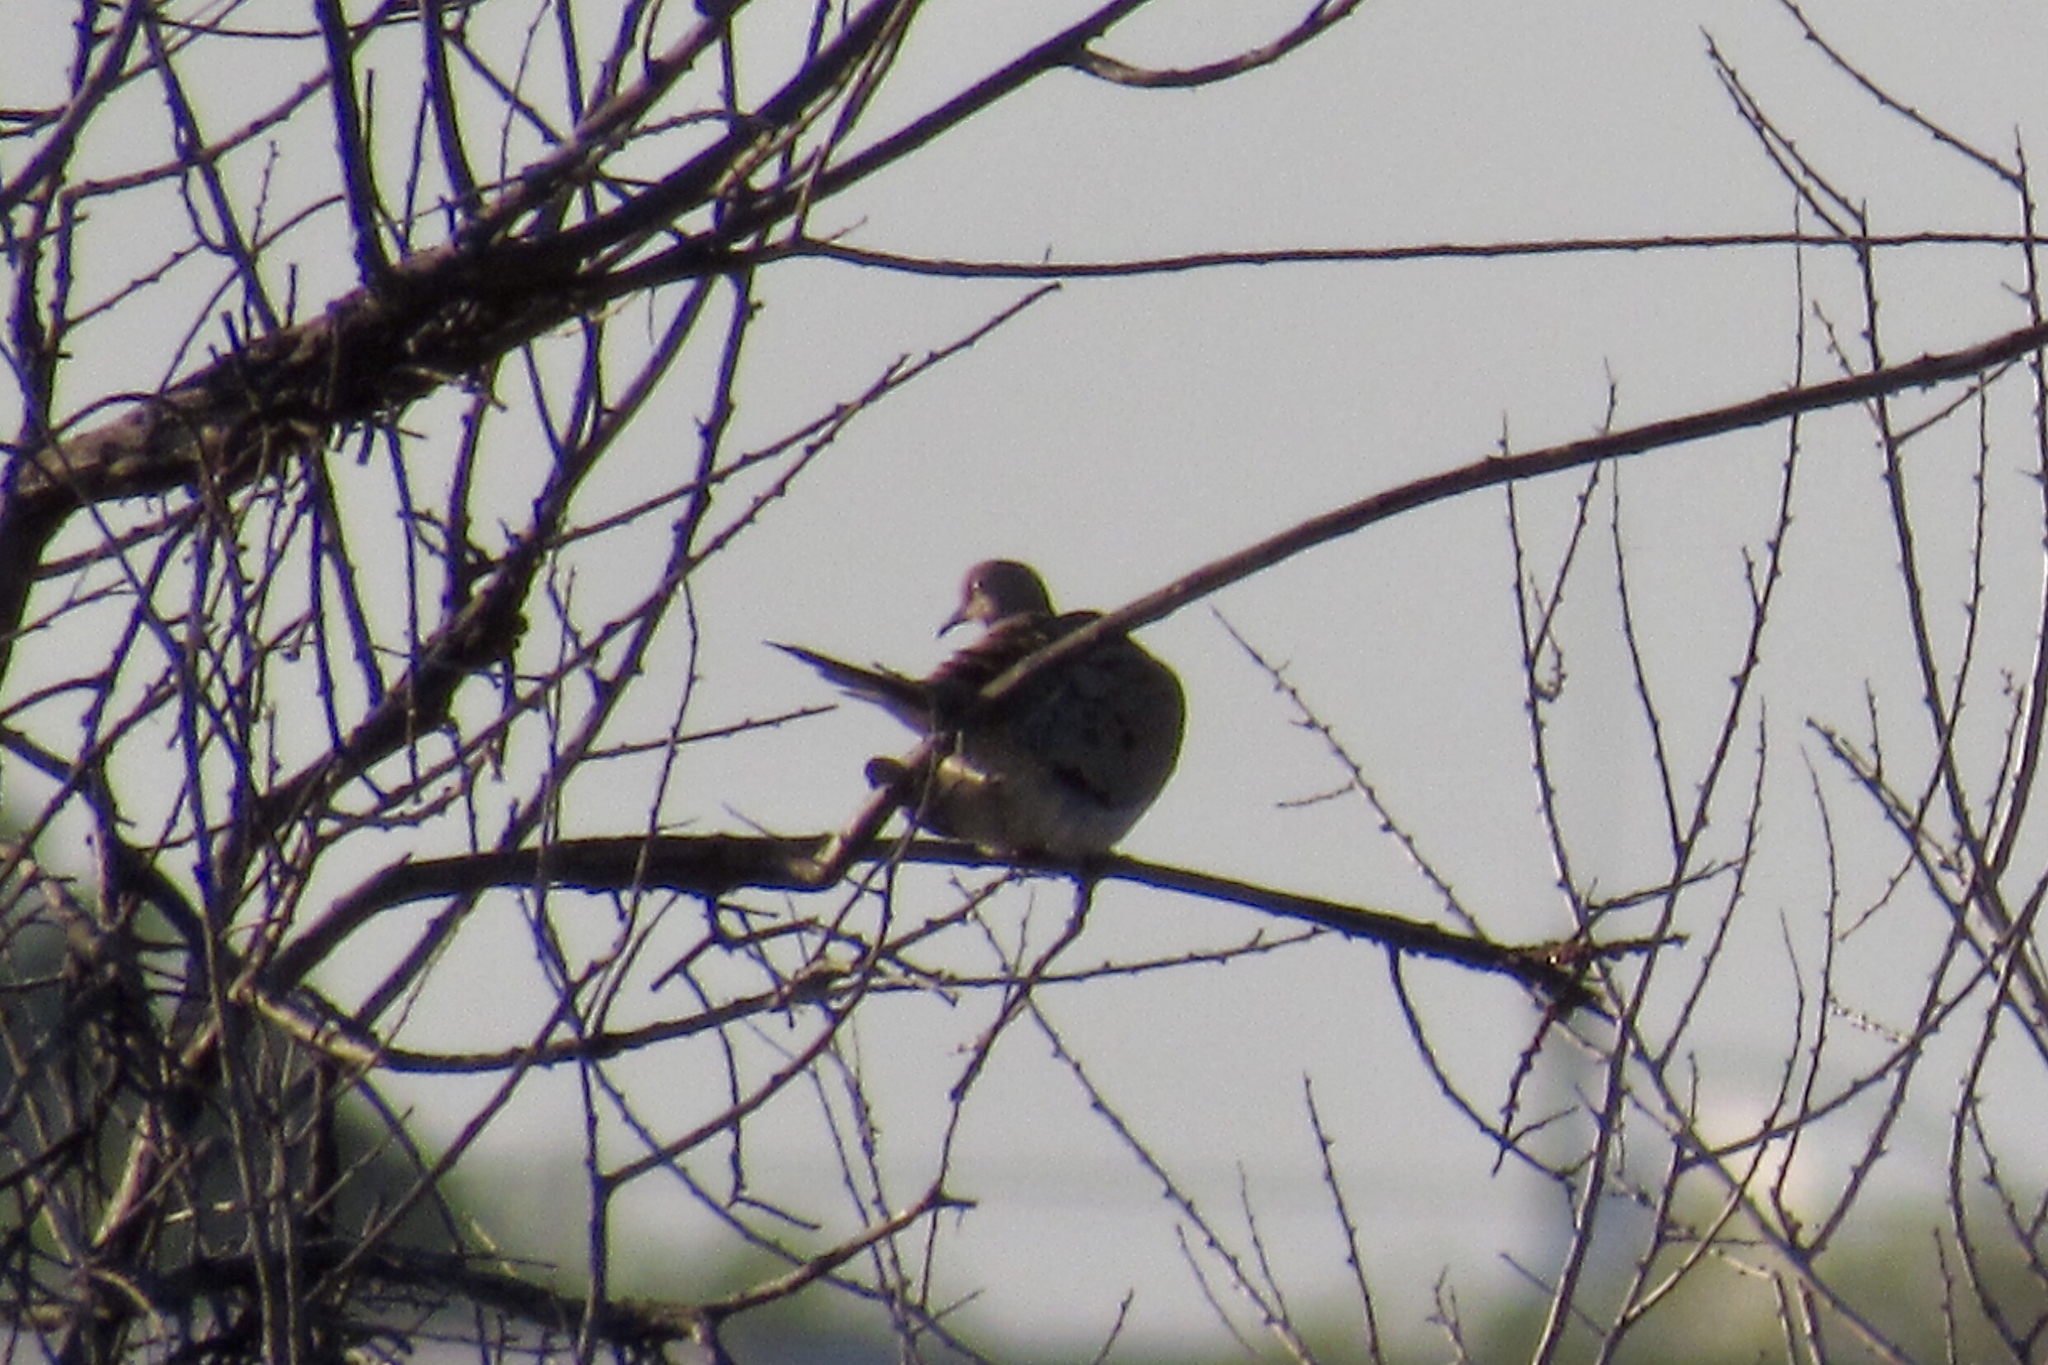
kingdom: Animalia
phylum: Chordata
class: Aves
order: Columbiformes
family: Columbidae
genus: Zenaida
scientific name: Zenaida macroura
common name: Mourning dove
